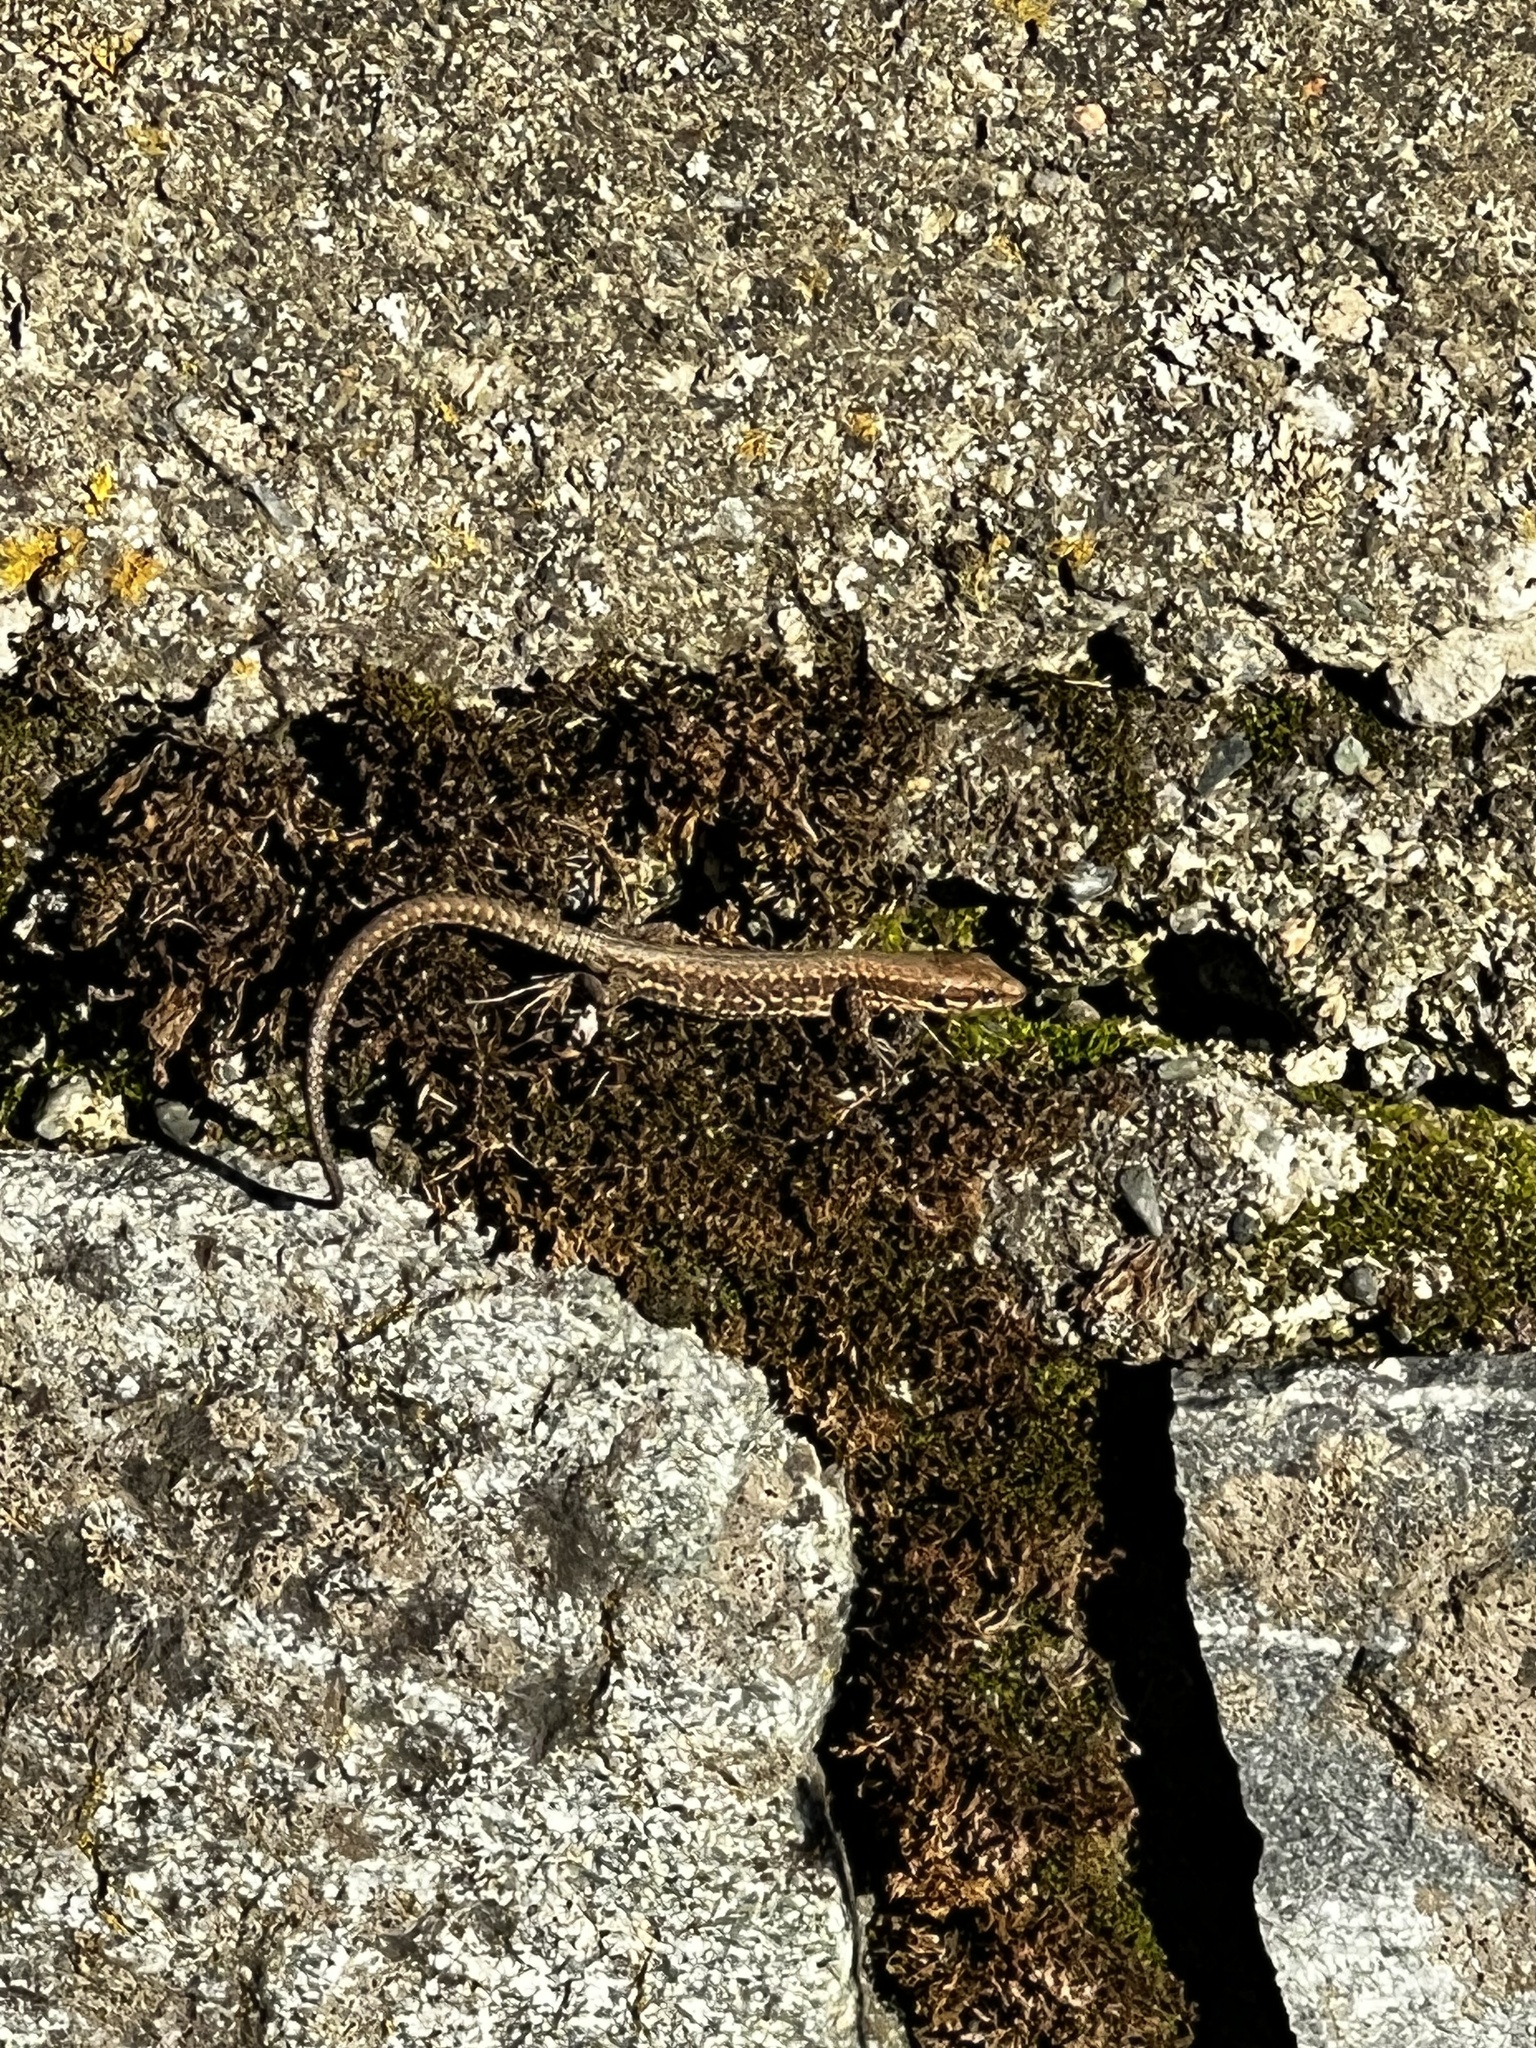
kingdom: Animalia
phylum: Chordata
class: Squamata
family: Lacertidae
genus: Podarcis
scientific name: Podarcis muralis
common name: Common wall lizard
